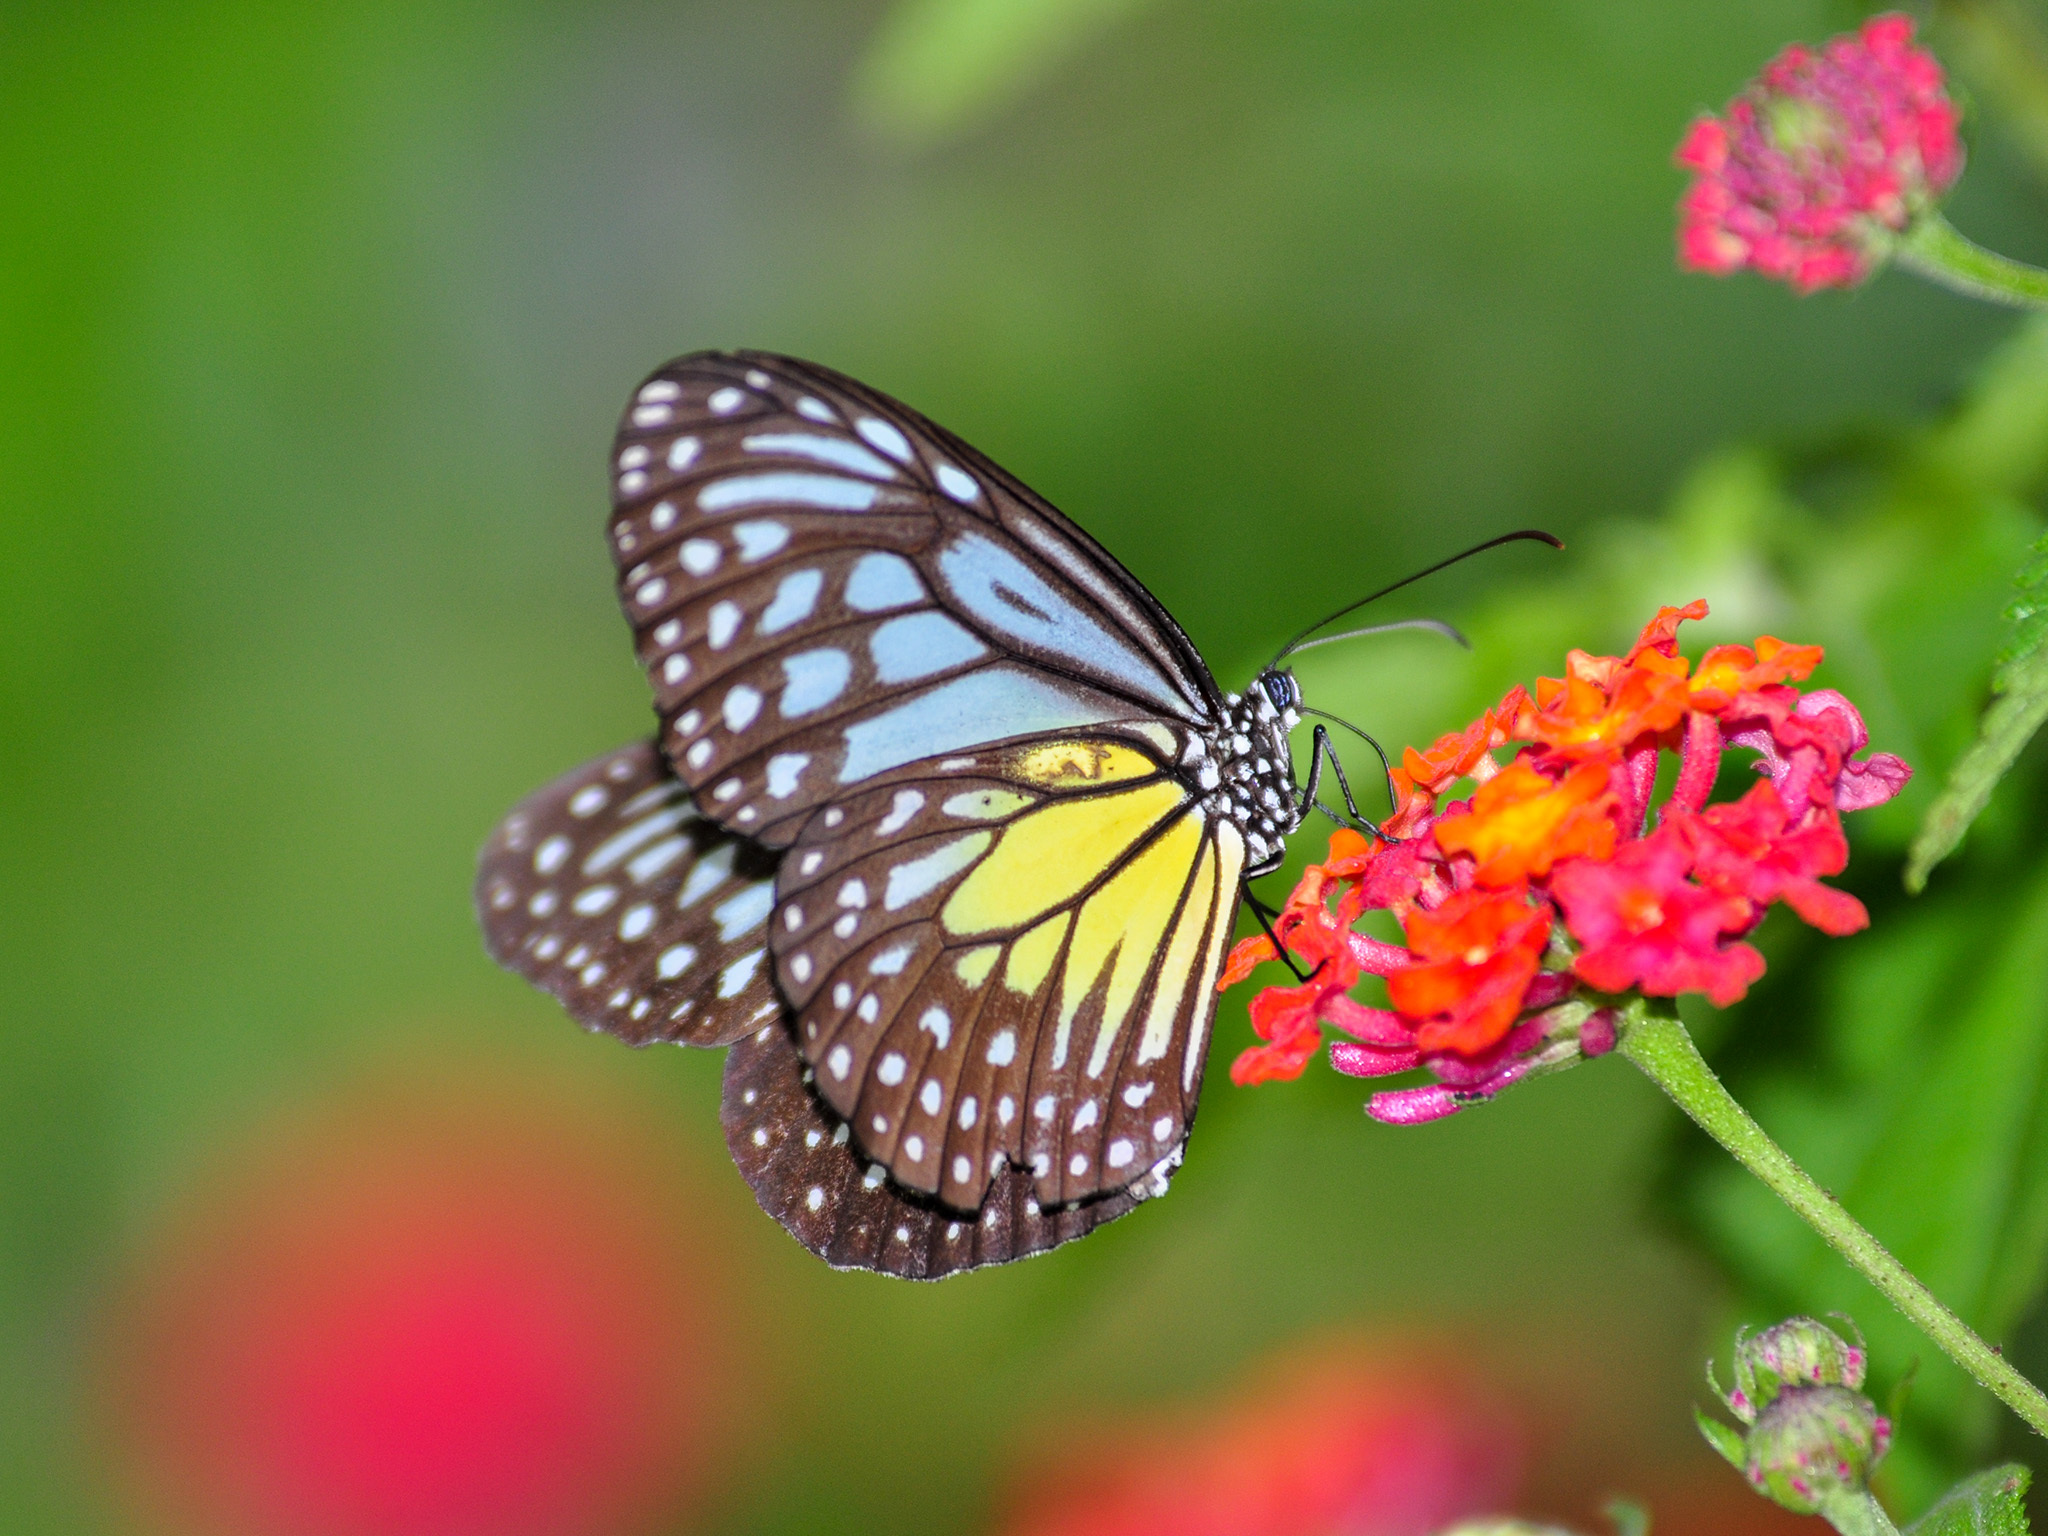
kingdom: Animalia
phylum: Arthropoda
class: Insecta
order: Lepidoptera
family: Nymphalidae
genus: Parantica
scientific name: Parantica aspasia
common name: Yellow glassy tiger
